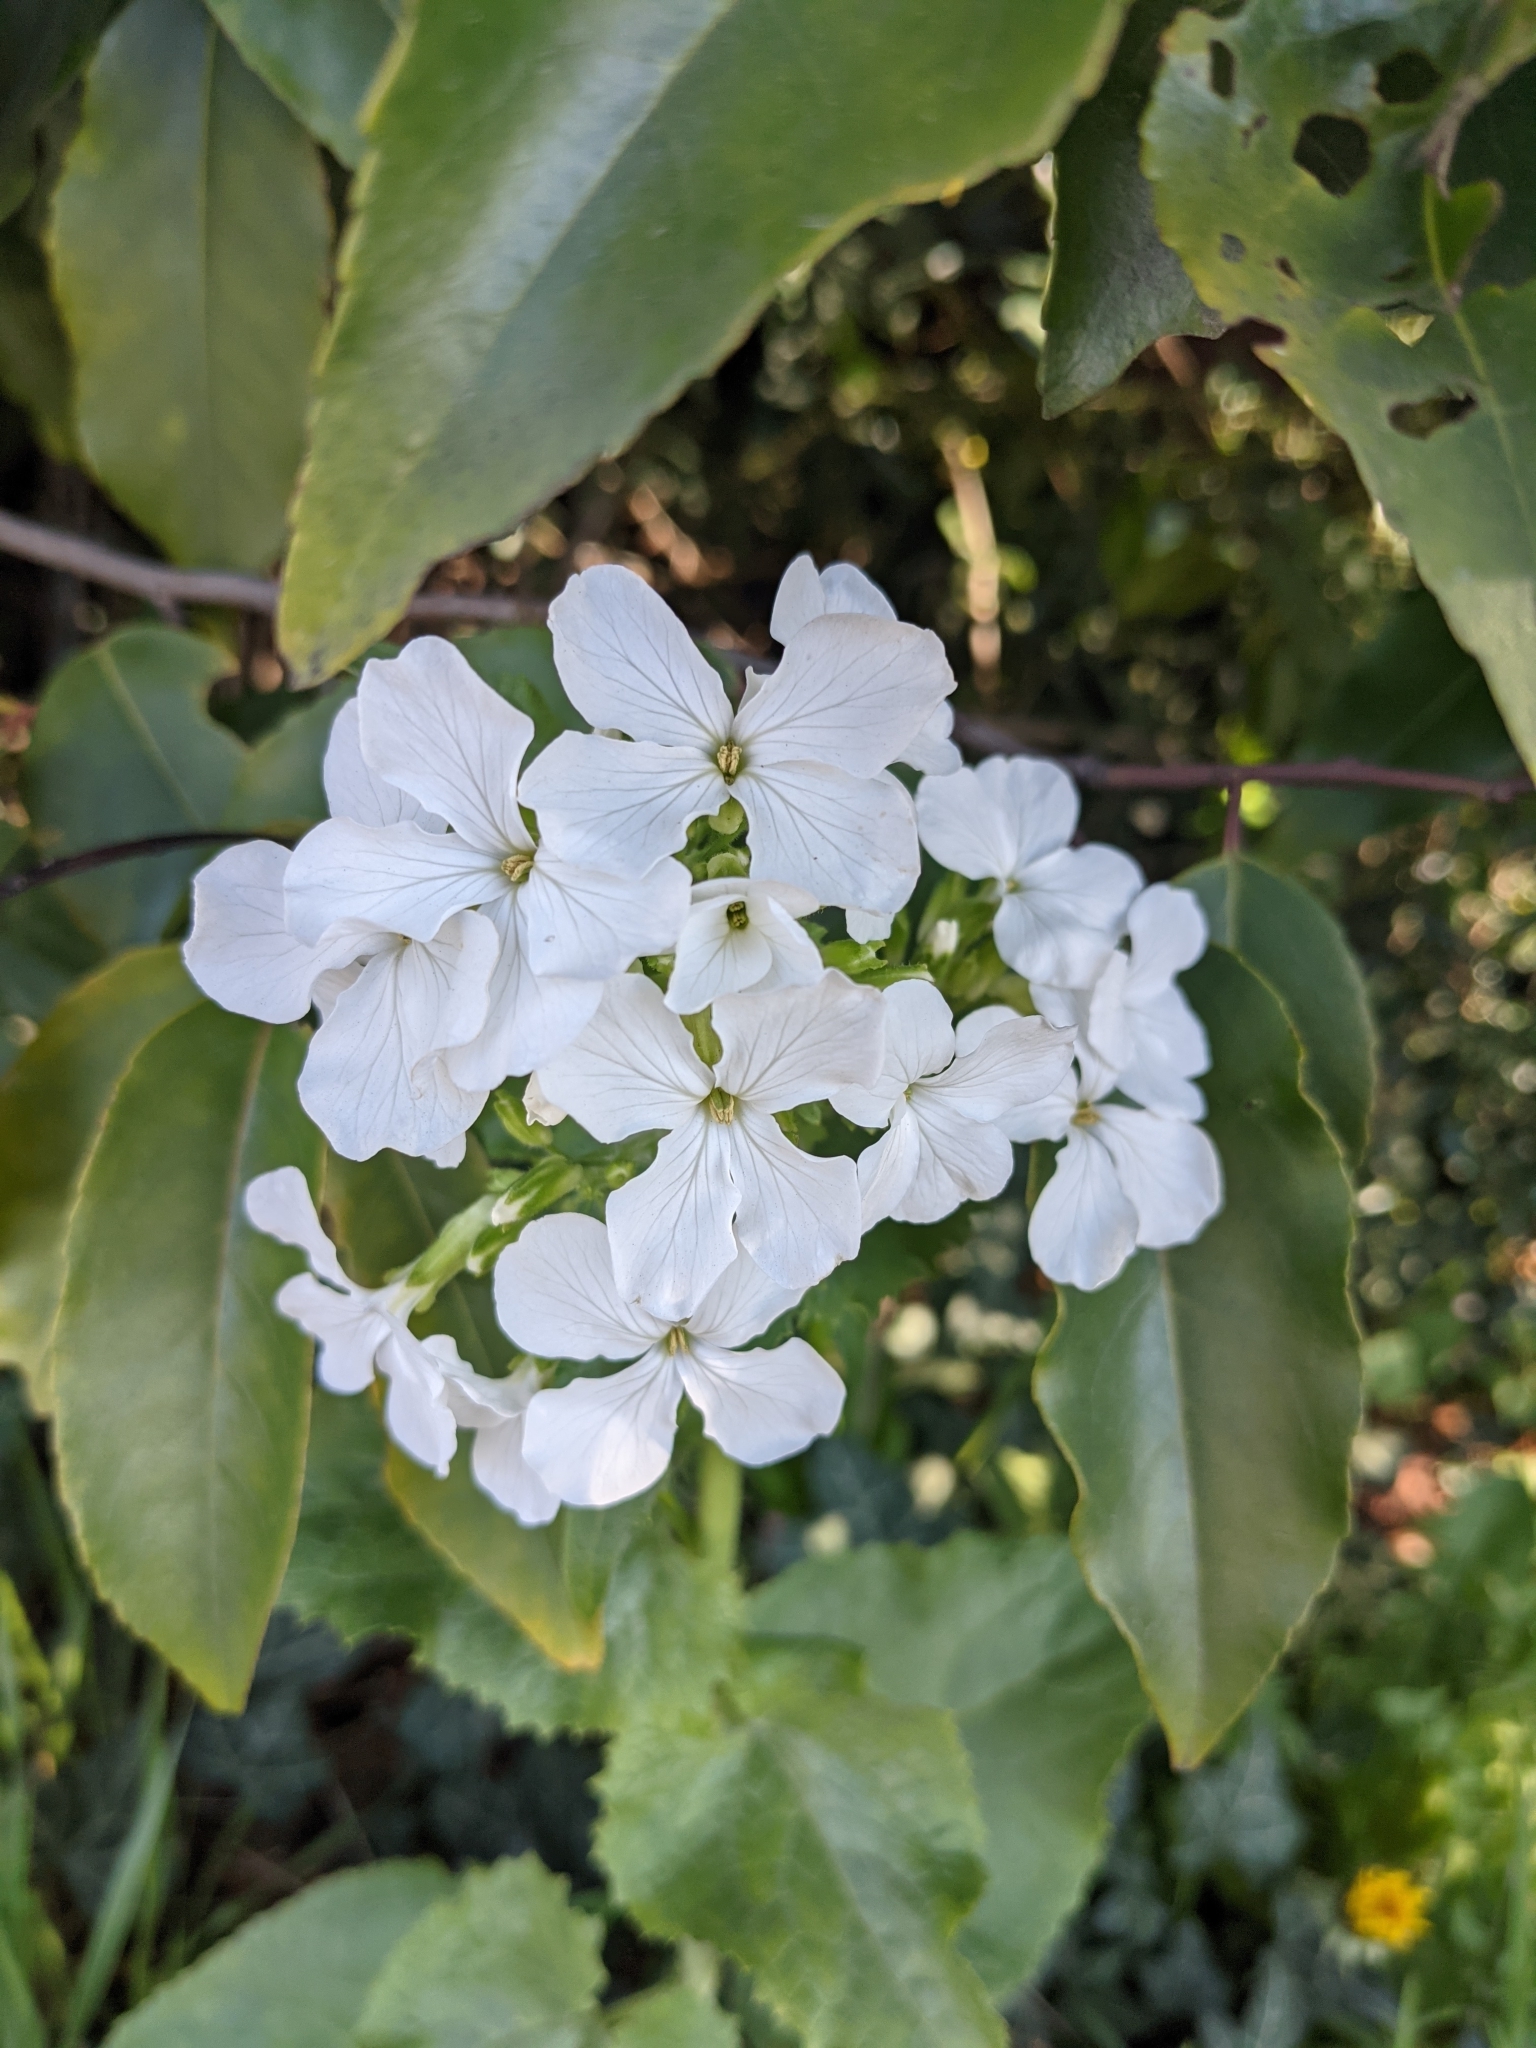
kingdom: Plantae
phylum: Tracheophyta
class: Magnoliopsida
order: Brassicales
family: Brassicaceae
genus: Lunaria
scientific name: Lunaria annua
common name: Honesty
